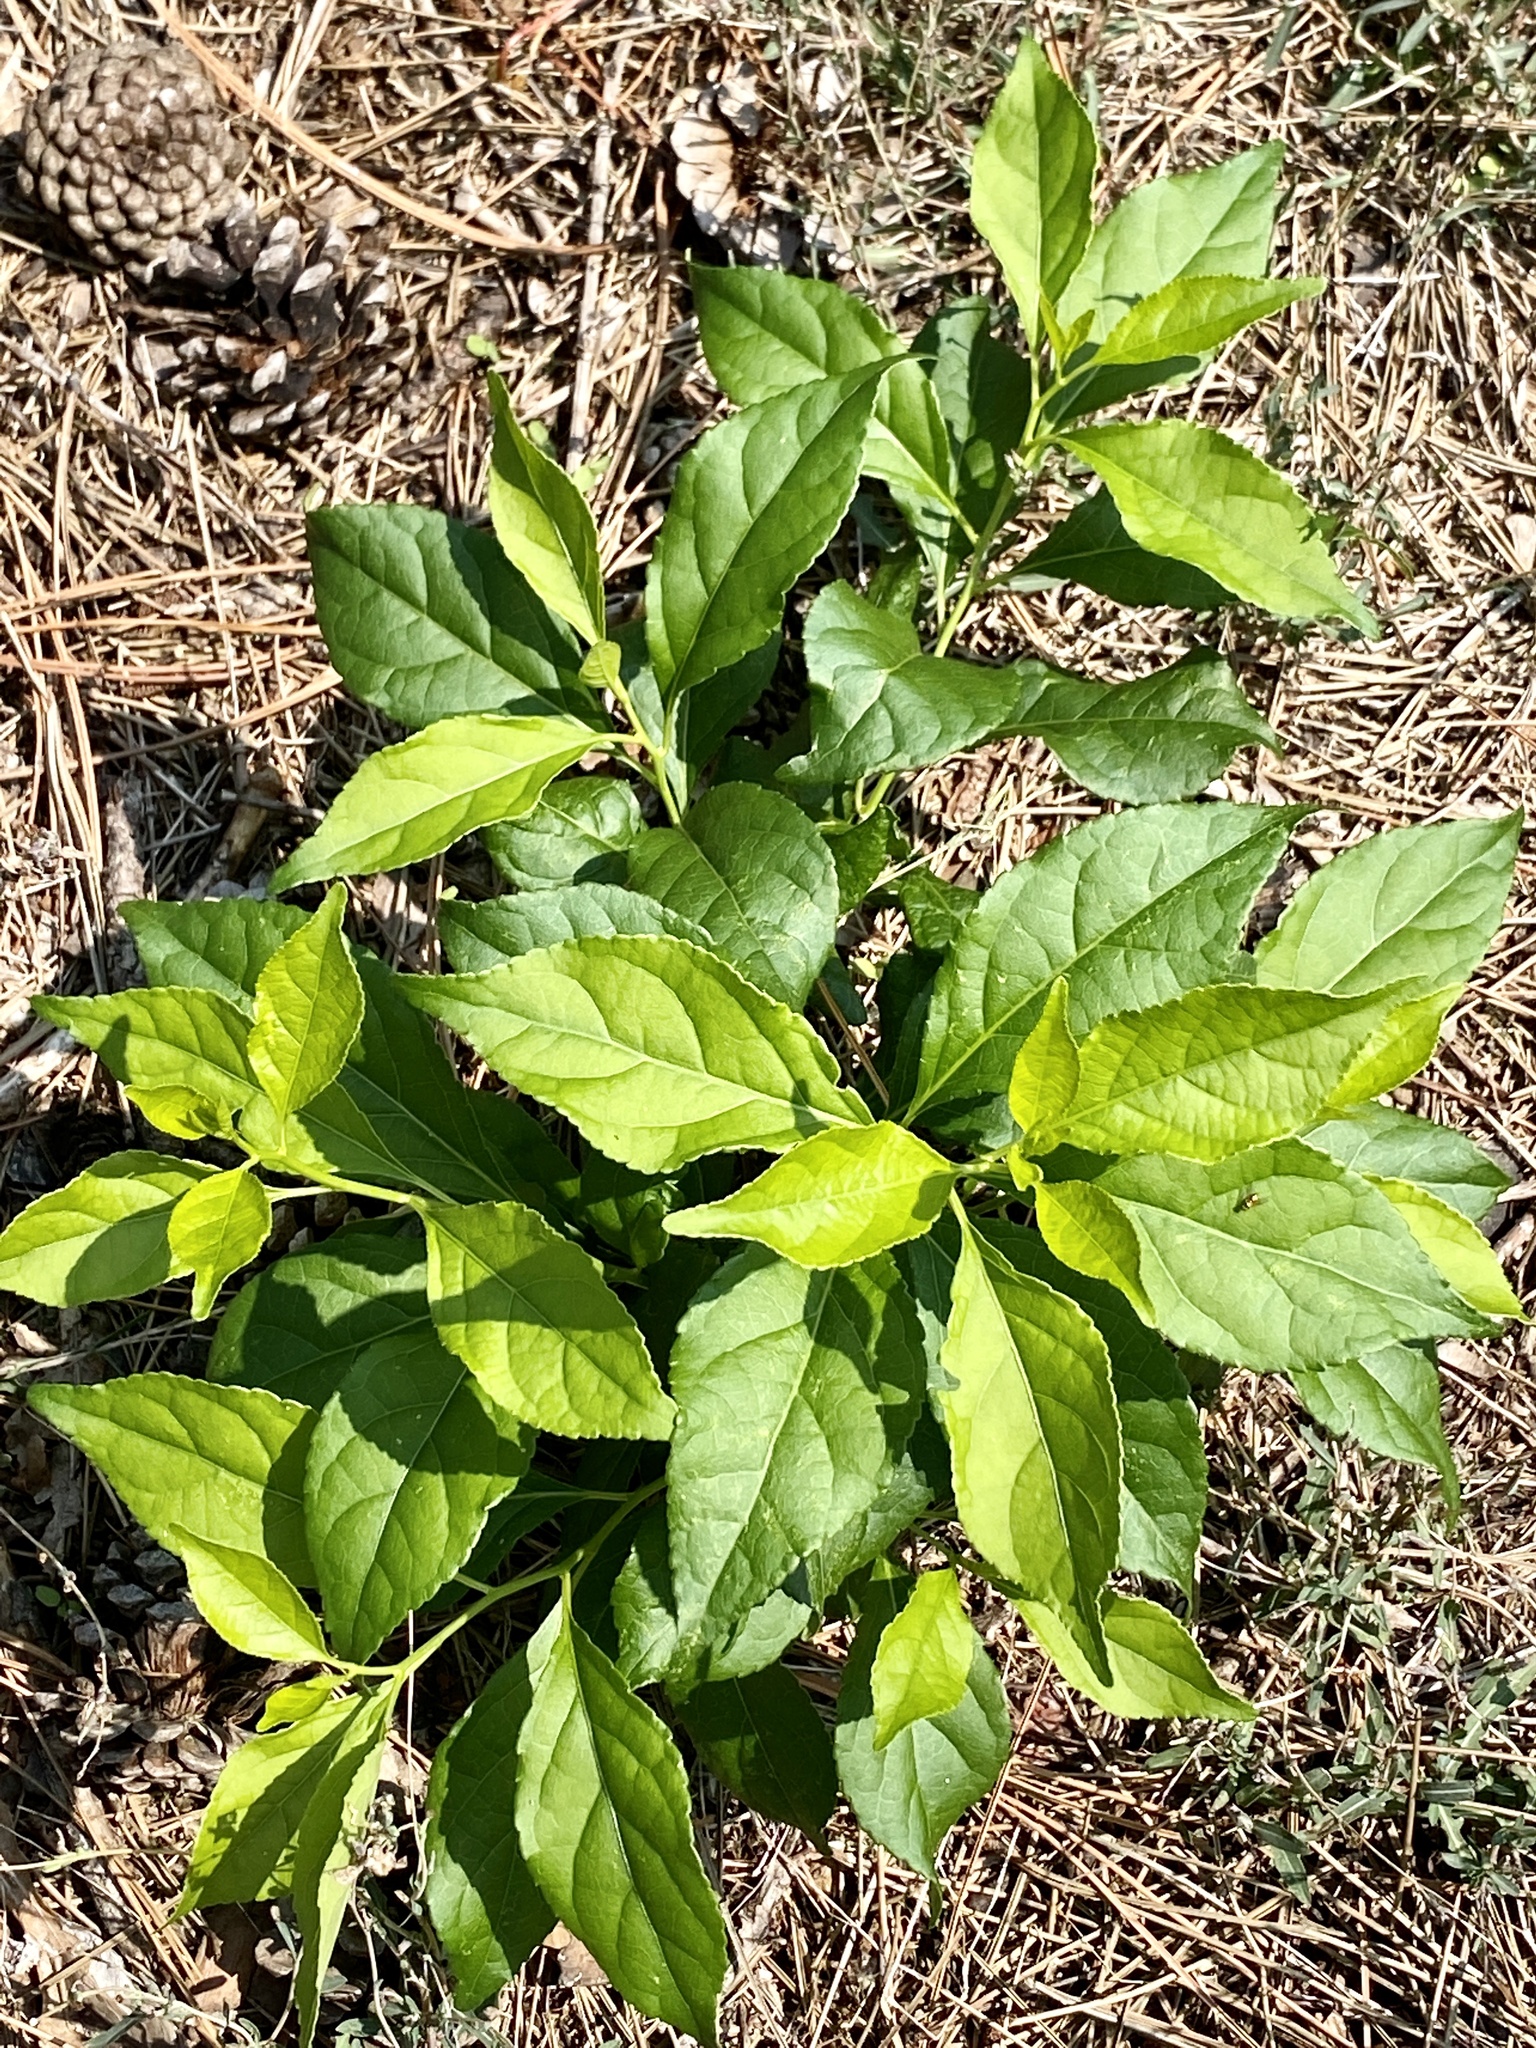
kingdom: Plantae
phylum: Tracheophyta
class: Magnoliopsida
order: Celastrales
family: Celastraceae
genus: Celastrus
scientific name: Celastrus orbiculatus
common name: Oriental bittersweet
